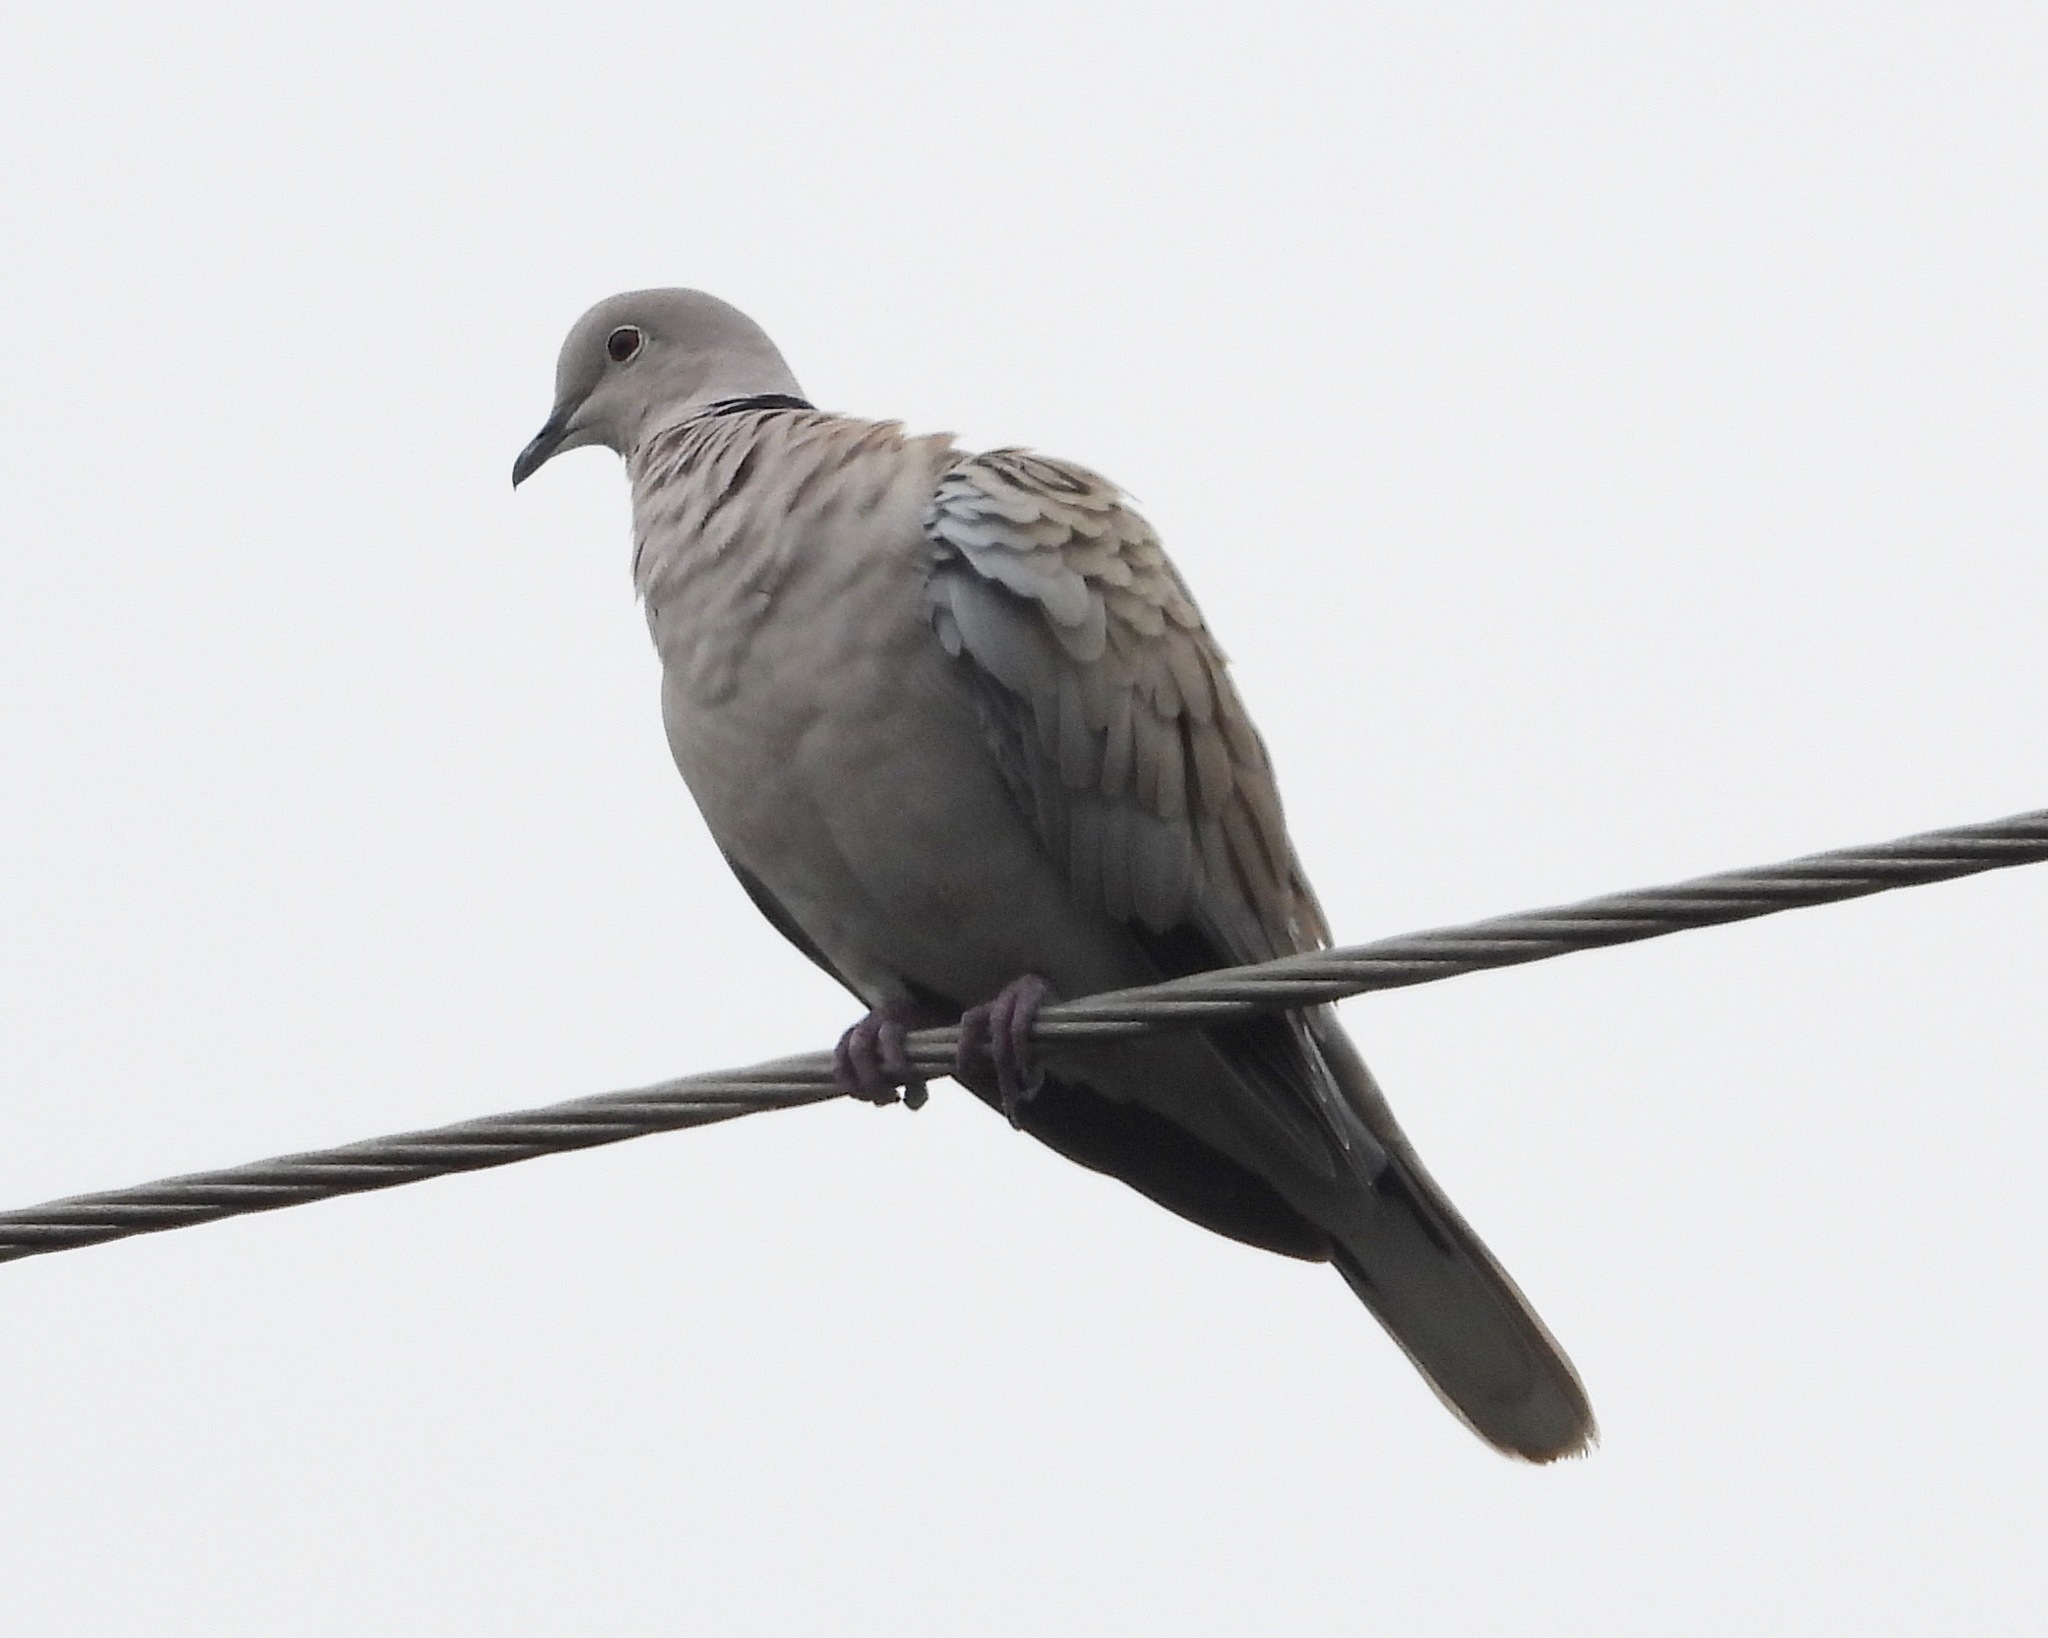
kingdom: Animalia
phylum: Chordata
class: Aves
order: Columbiformes
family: Columbidae
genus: Streptopelia
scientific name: Streptopelia decaocto
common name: Eurasian collared dove
